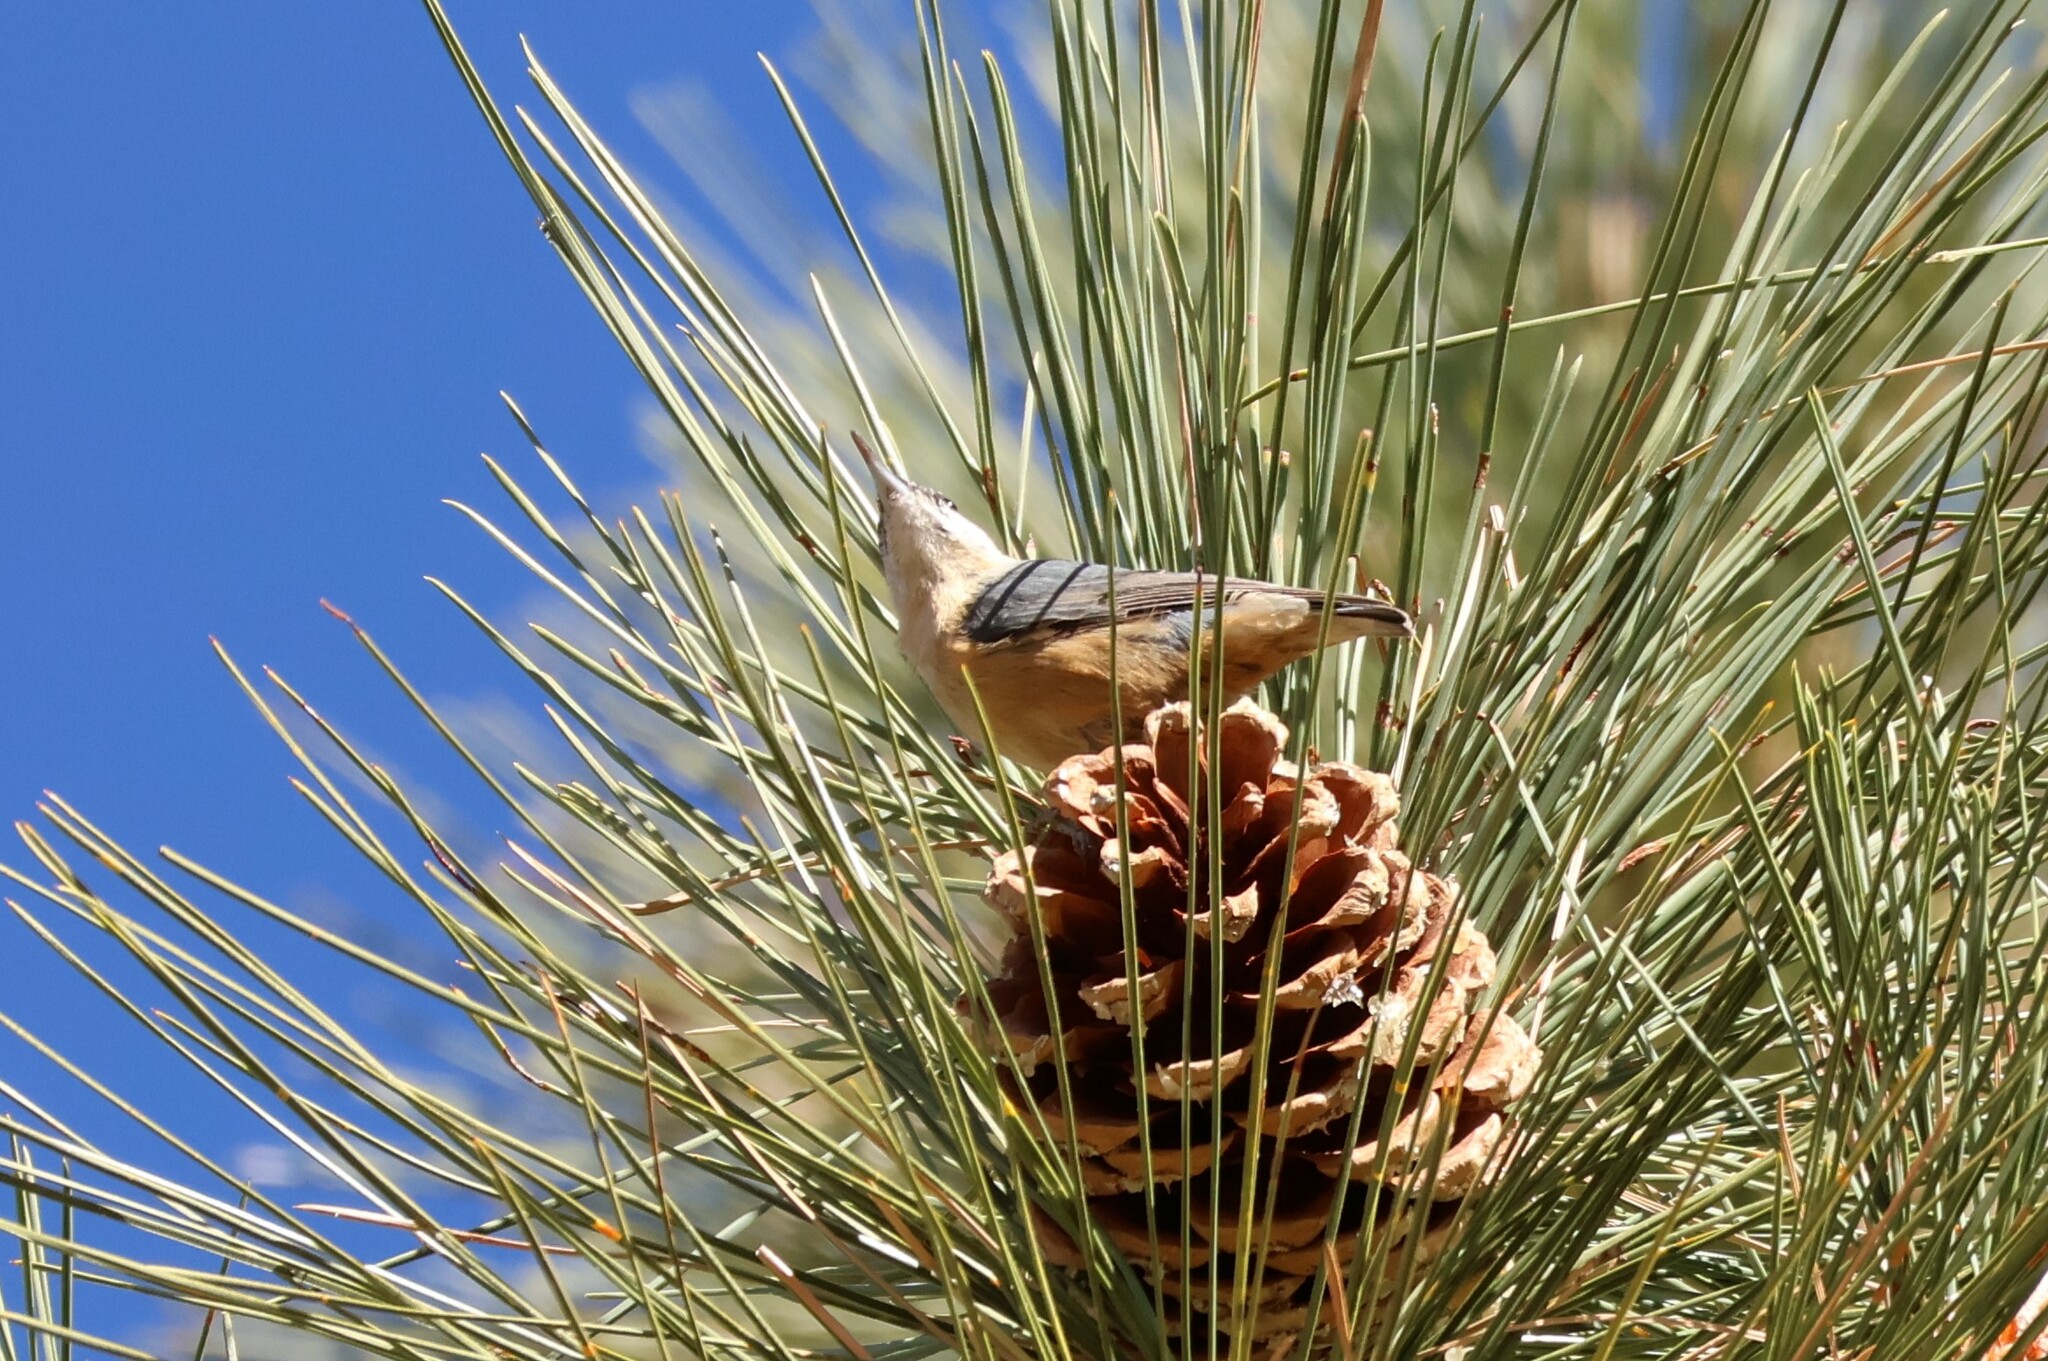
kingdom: Animalia
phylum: Chordata
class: Aves
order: Passeriformes
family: Sittidae
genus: Sitta
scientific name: Sitta canadensis
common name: Red-breasted nuthatch
